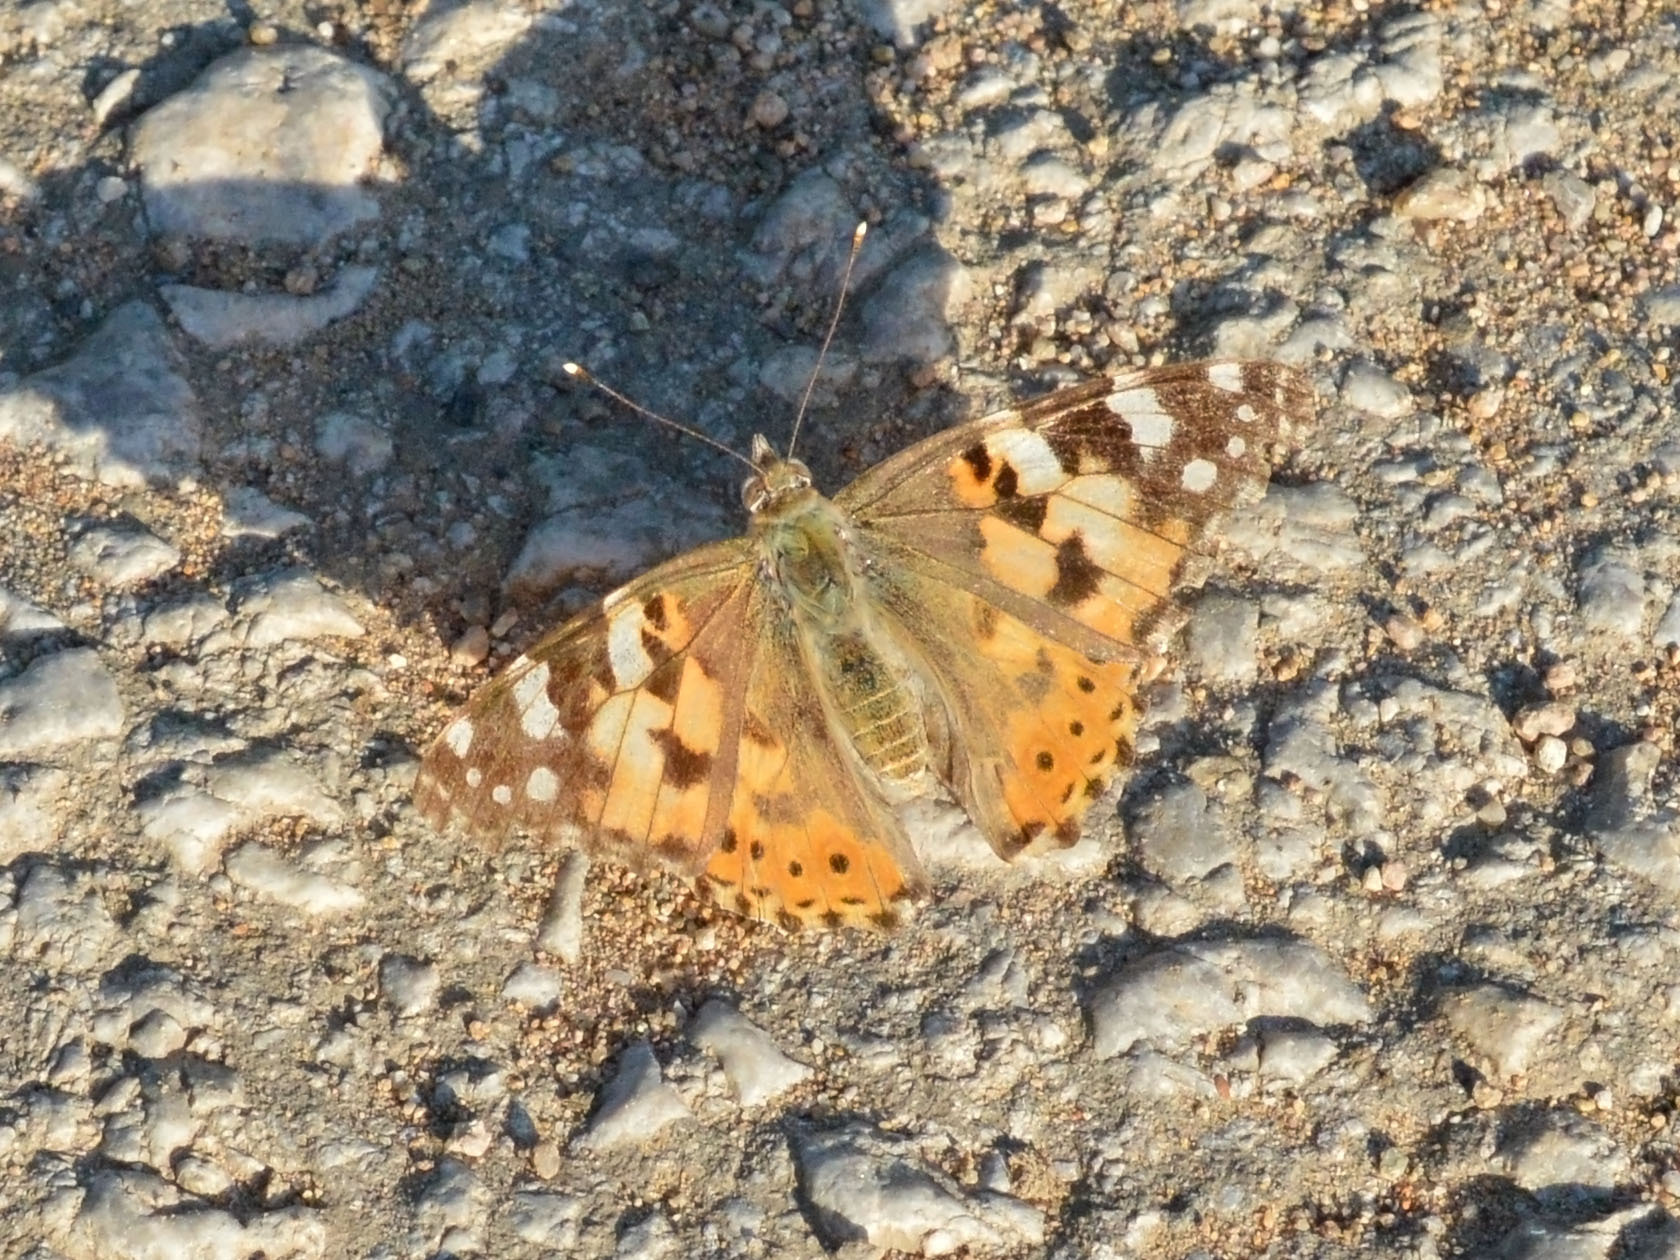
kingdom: Animalia
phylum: Arthropoda
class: Insecta
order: Lepidoptera
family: Nymphalidae
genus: Vanessa
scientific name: Vanessa cardui
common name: Painted lady
